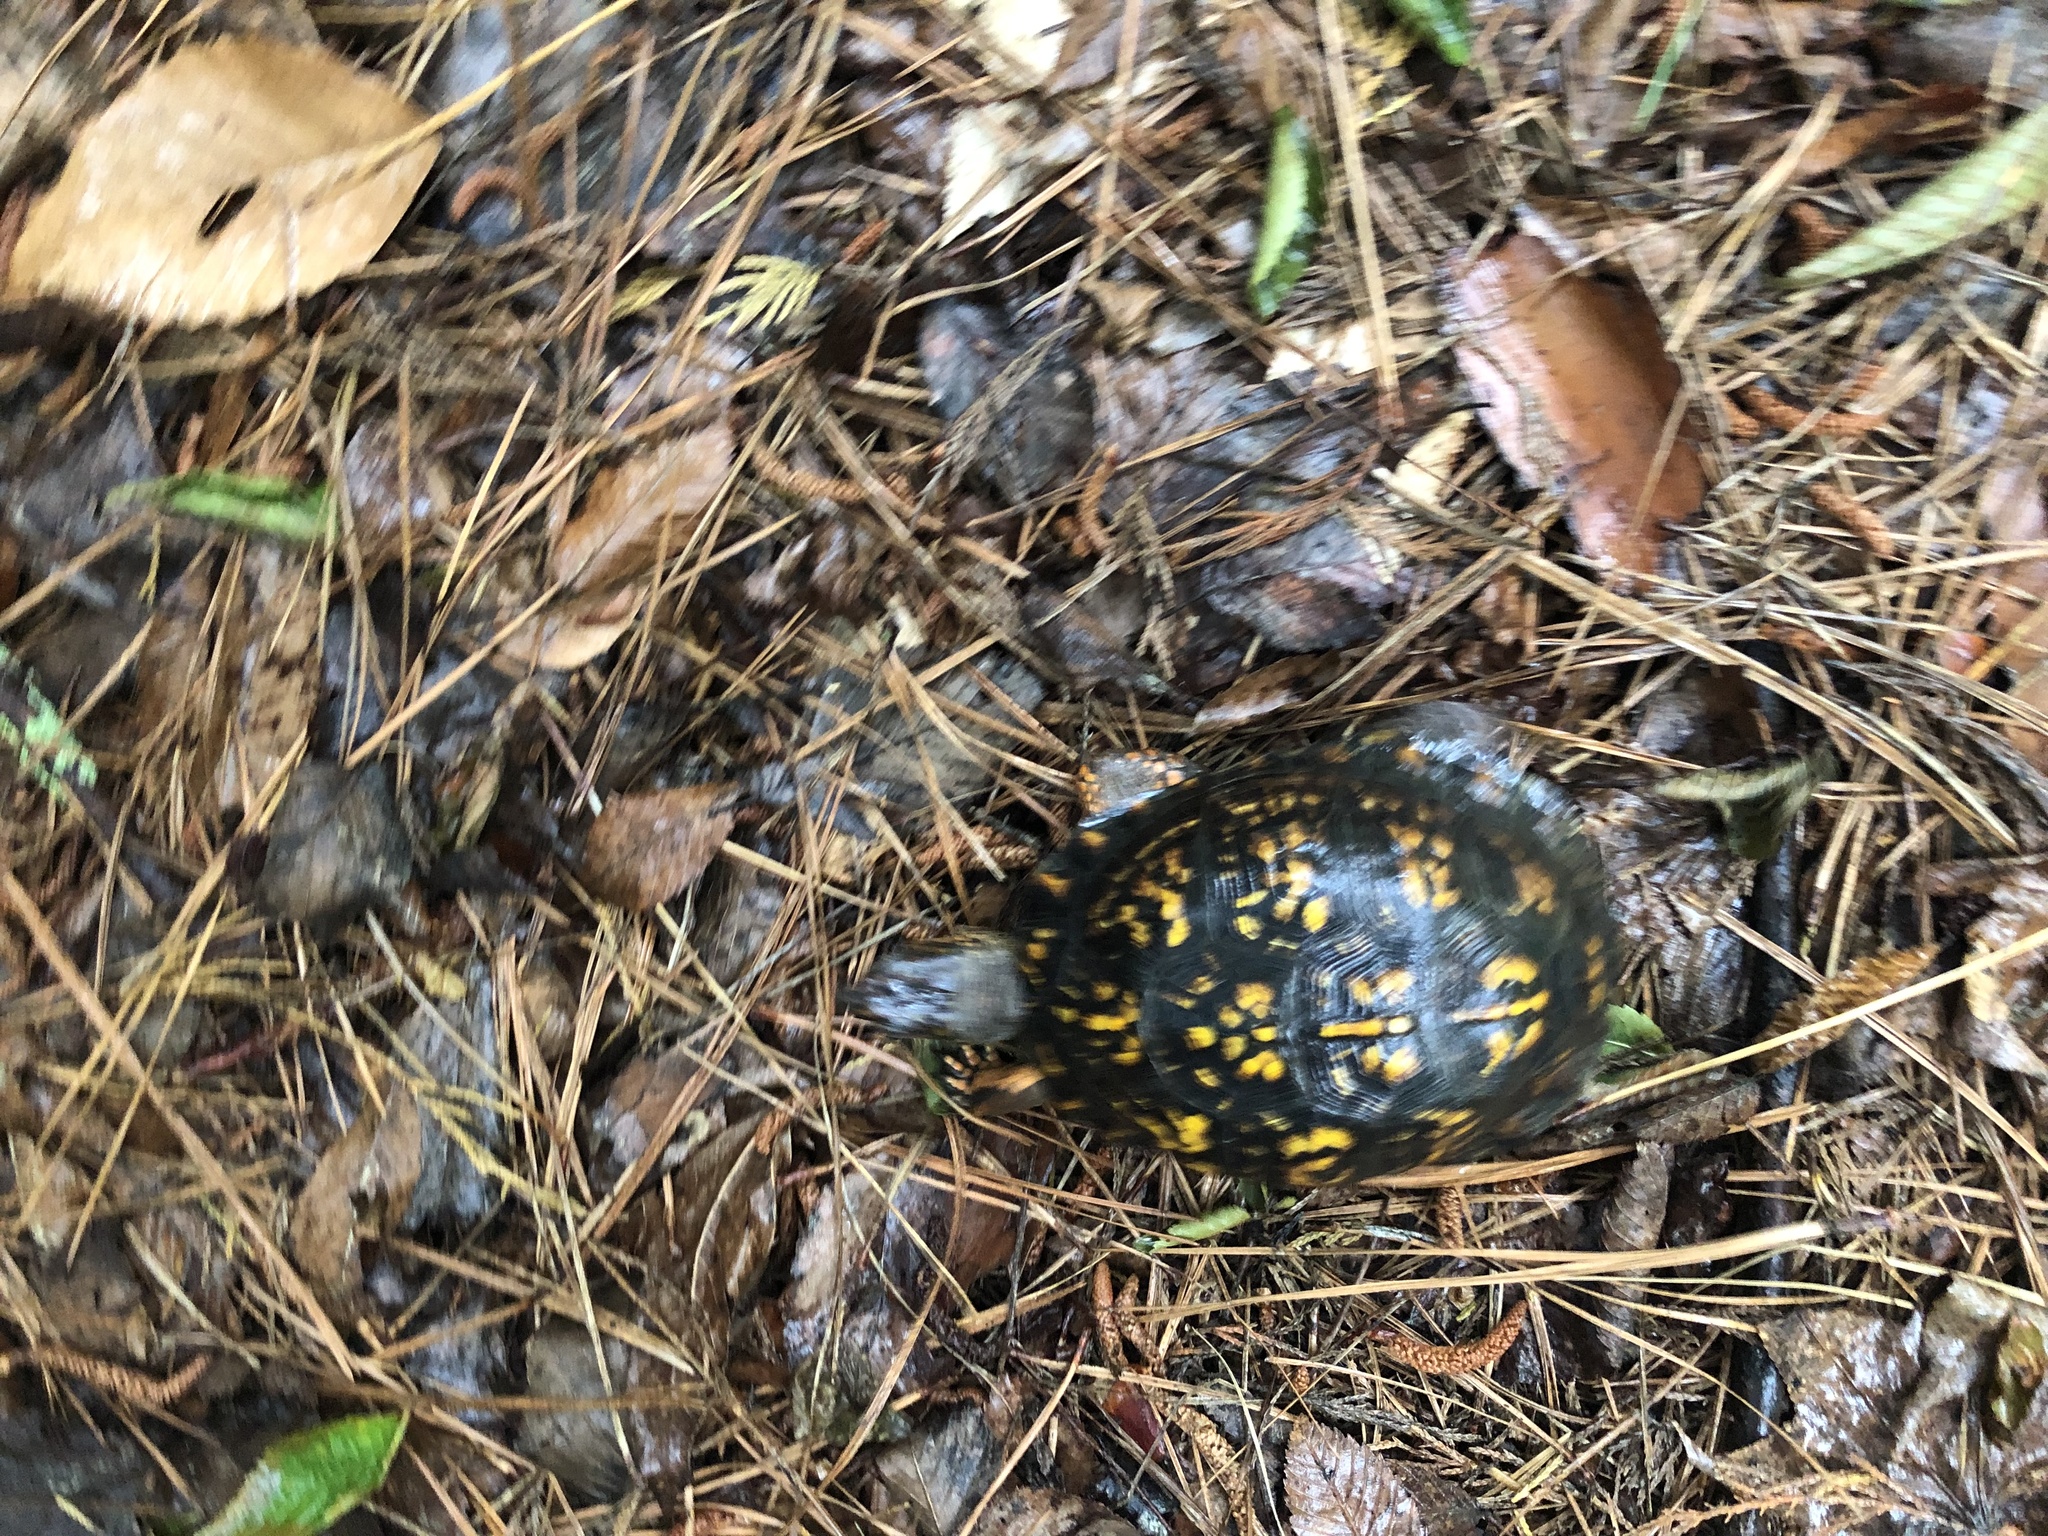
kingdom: Animalia
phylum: Chordata
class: Testudines
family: Emydidae
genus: Terrapene
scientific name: Terrapene carolina
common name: Common box turtle
